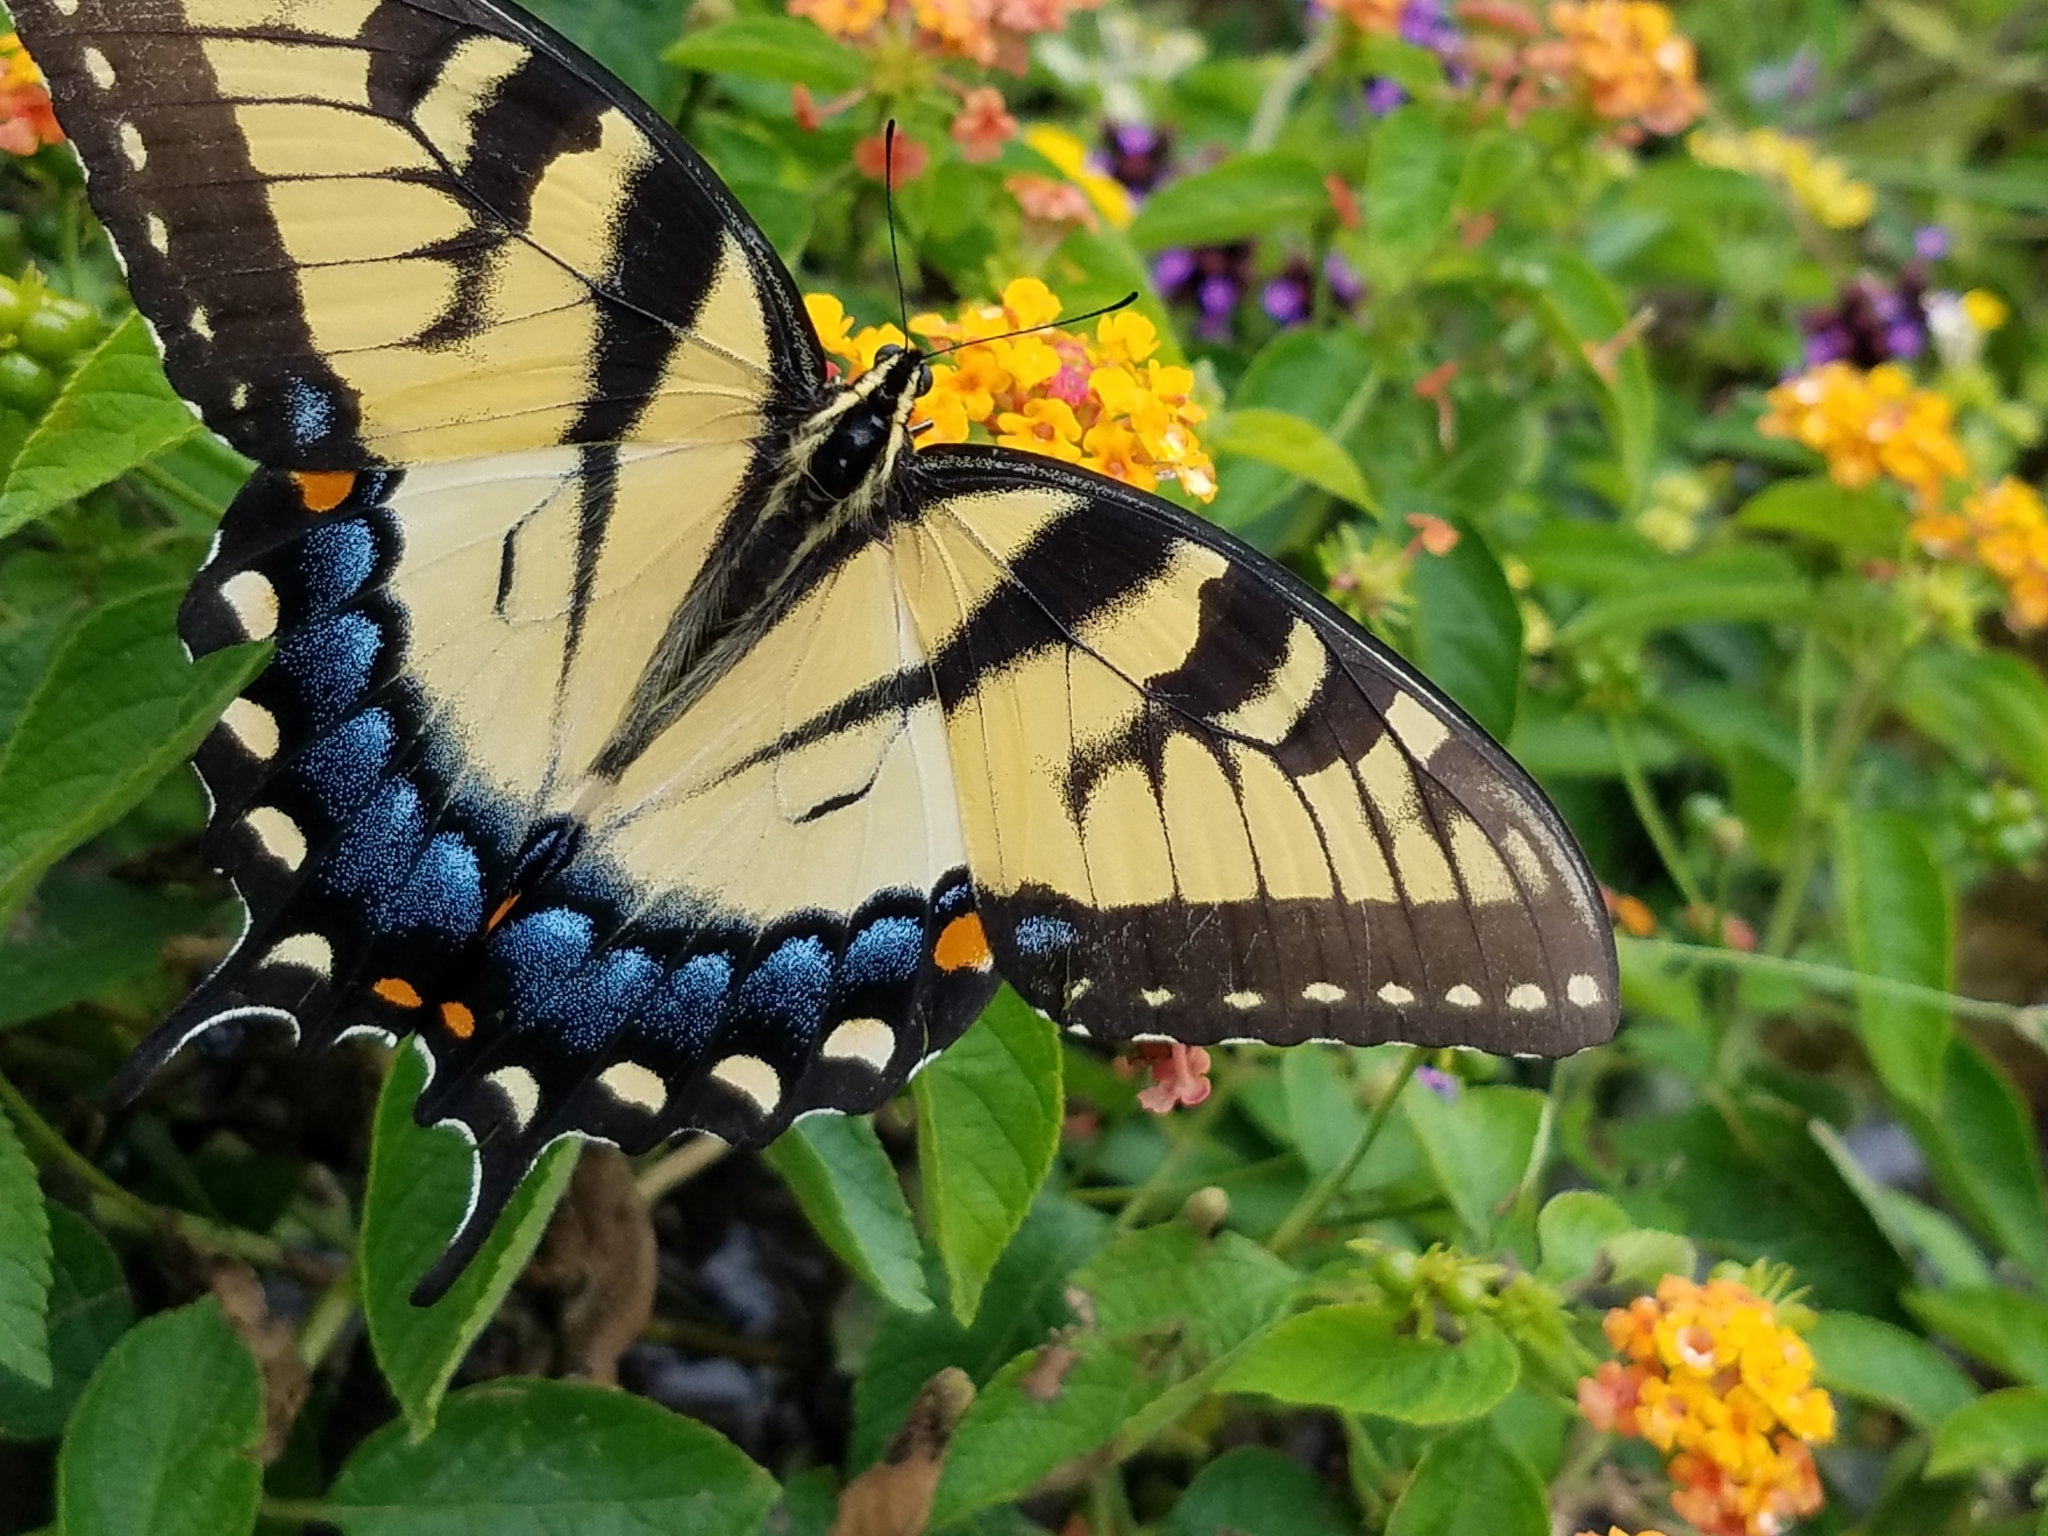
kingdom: Animalia
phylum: Arthropoda
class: Insecta
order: Lepidoptera
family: Papilionidae
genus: Papilio
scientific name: Papilio glaucus
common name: Tiger swallowtail
